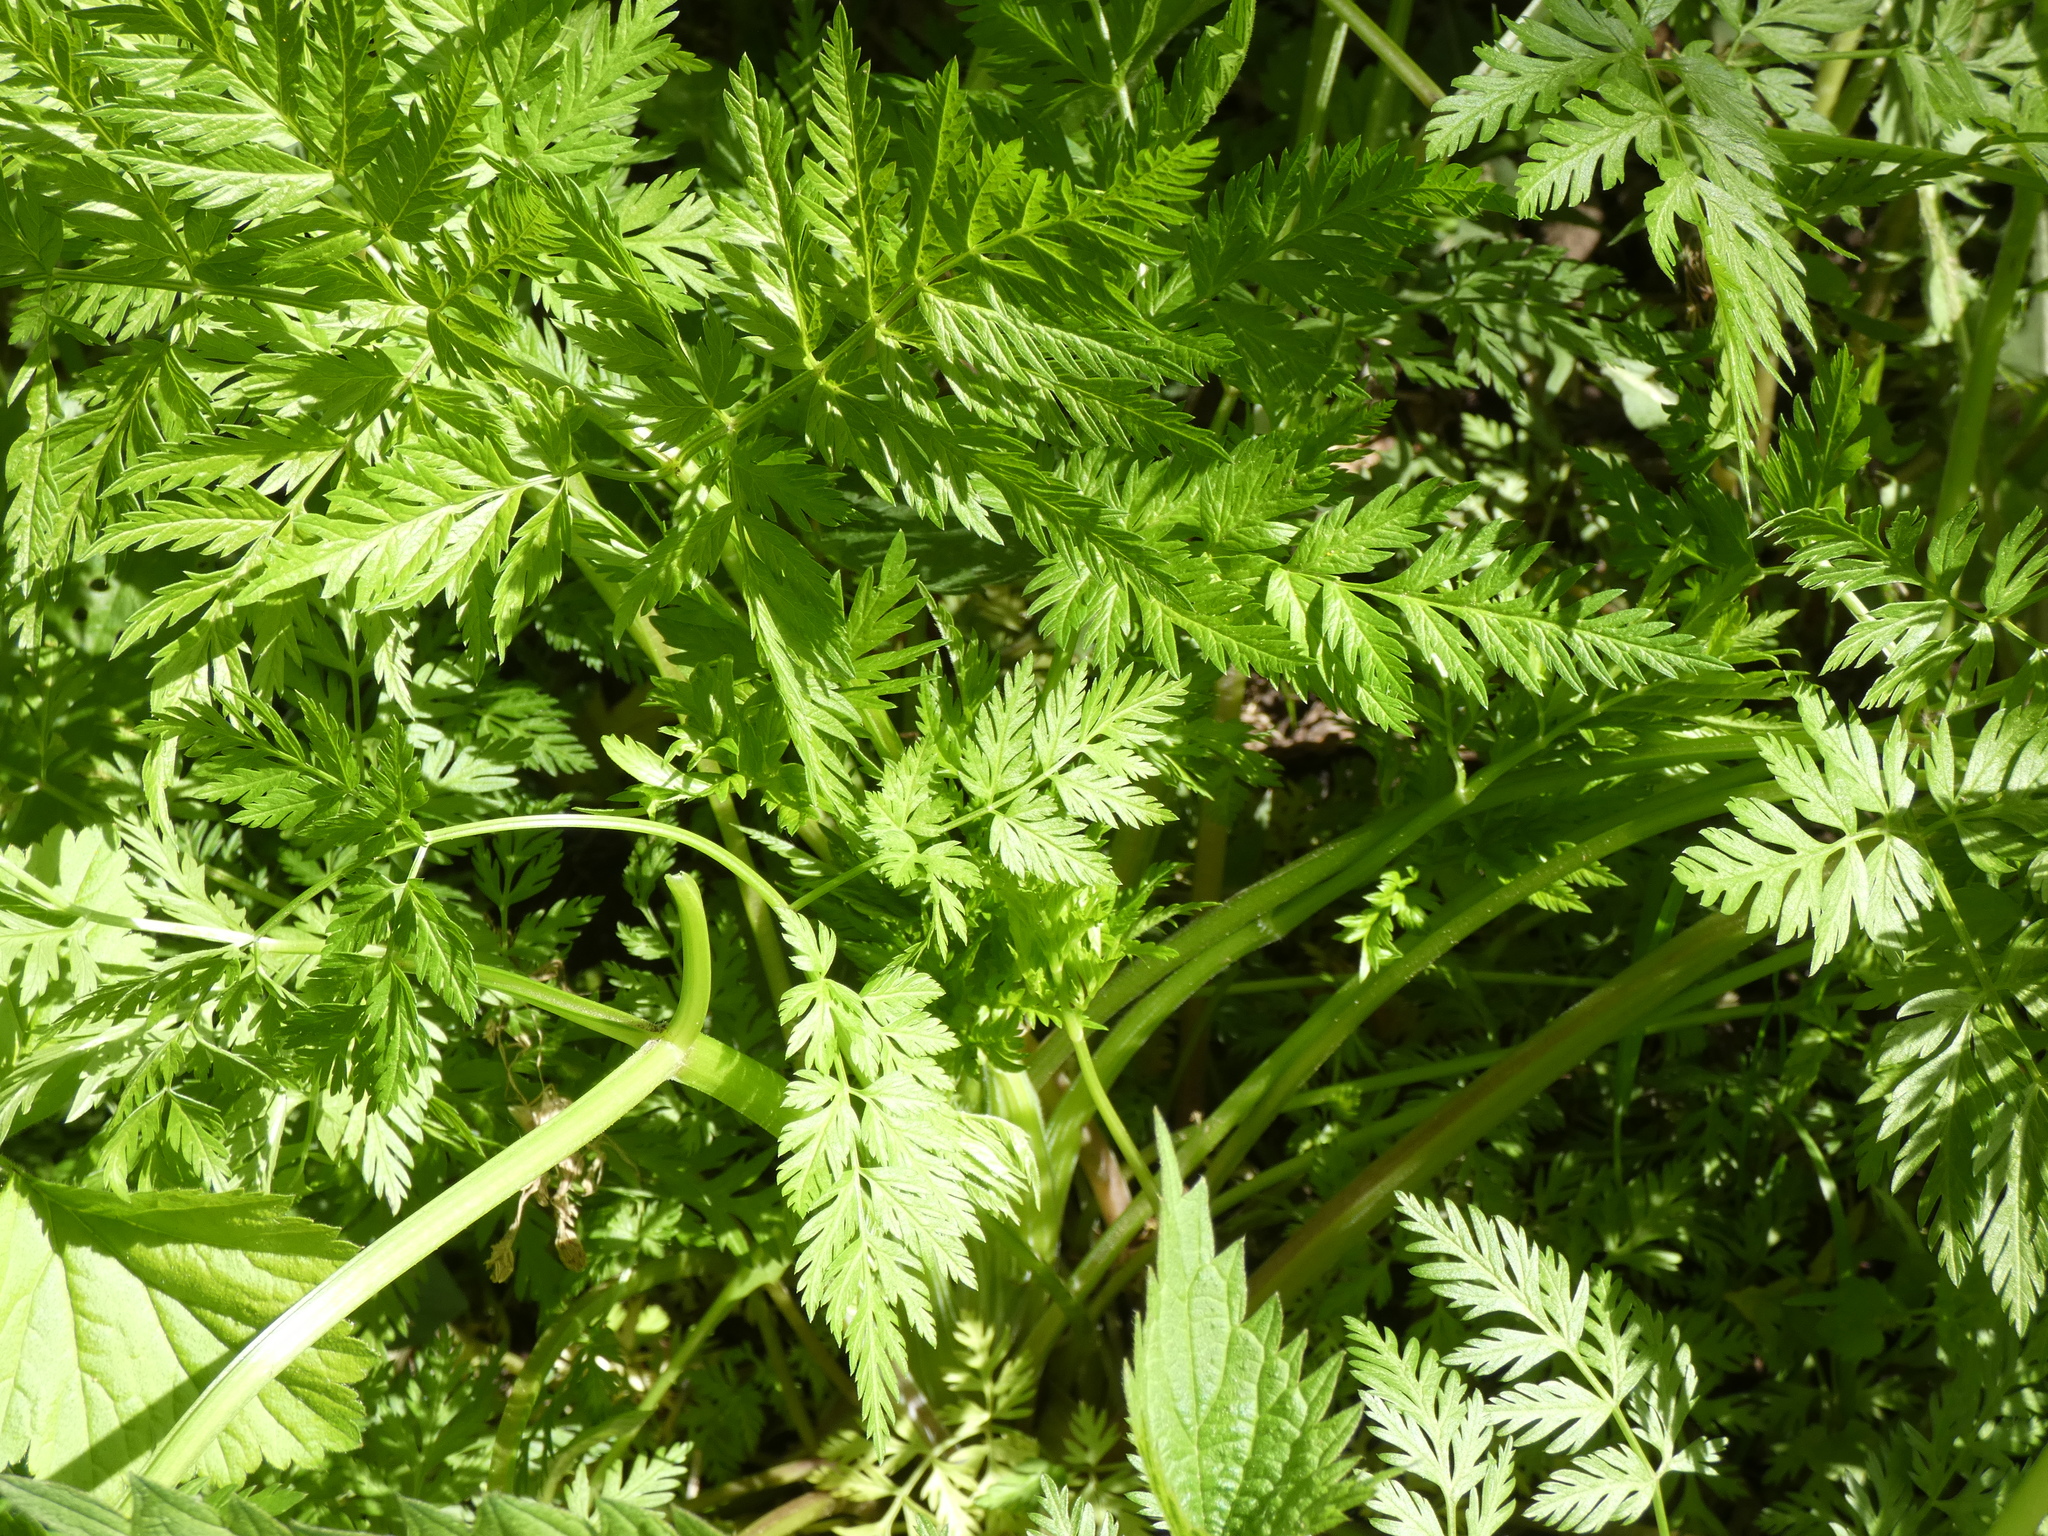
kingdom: Plantae
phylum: Tracheophyta
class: Magnoliopsida
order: Apiales
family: Apiaceae
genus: Anthriscus
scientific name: Anthriscus sylvestris
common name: Cow parsley
